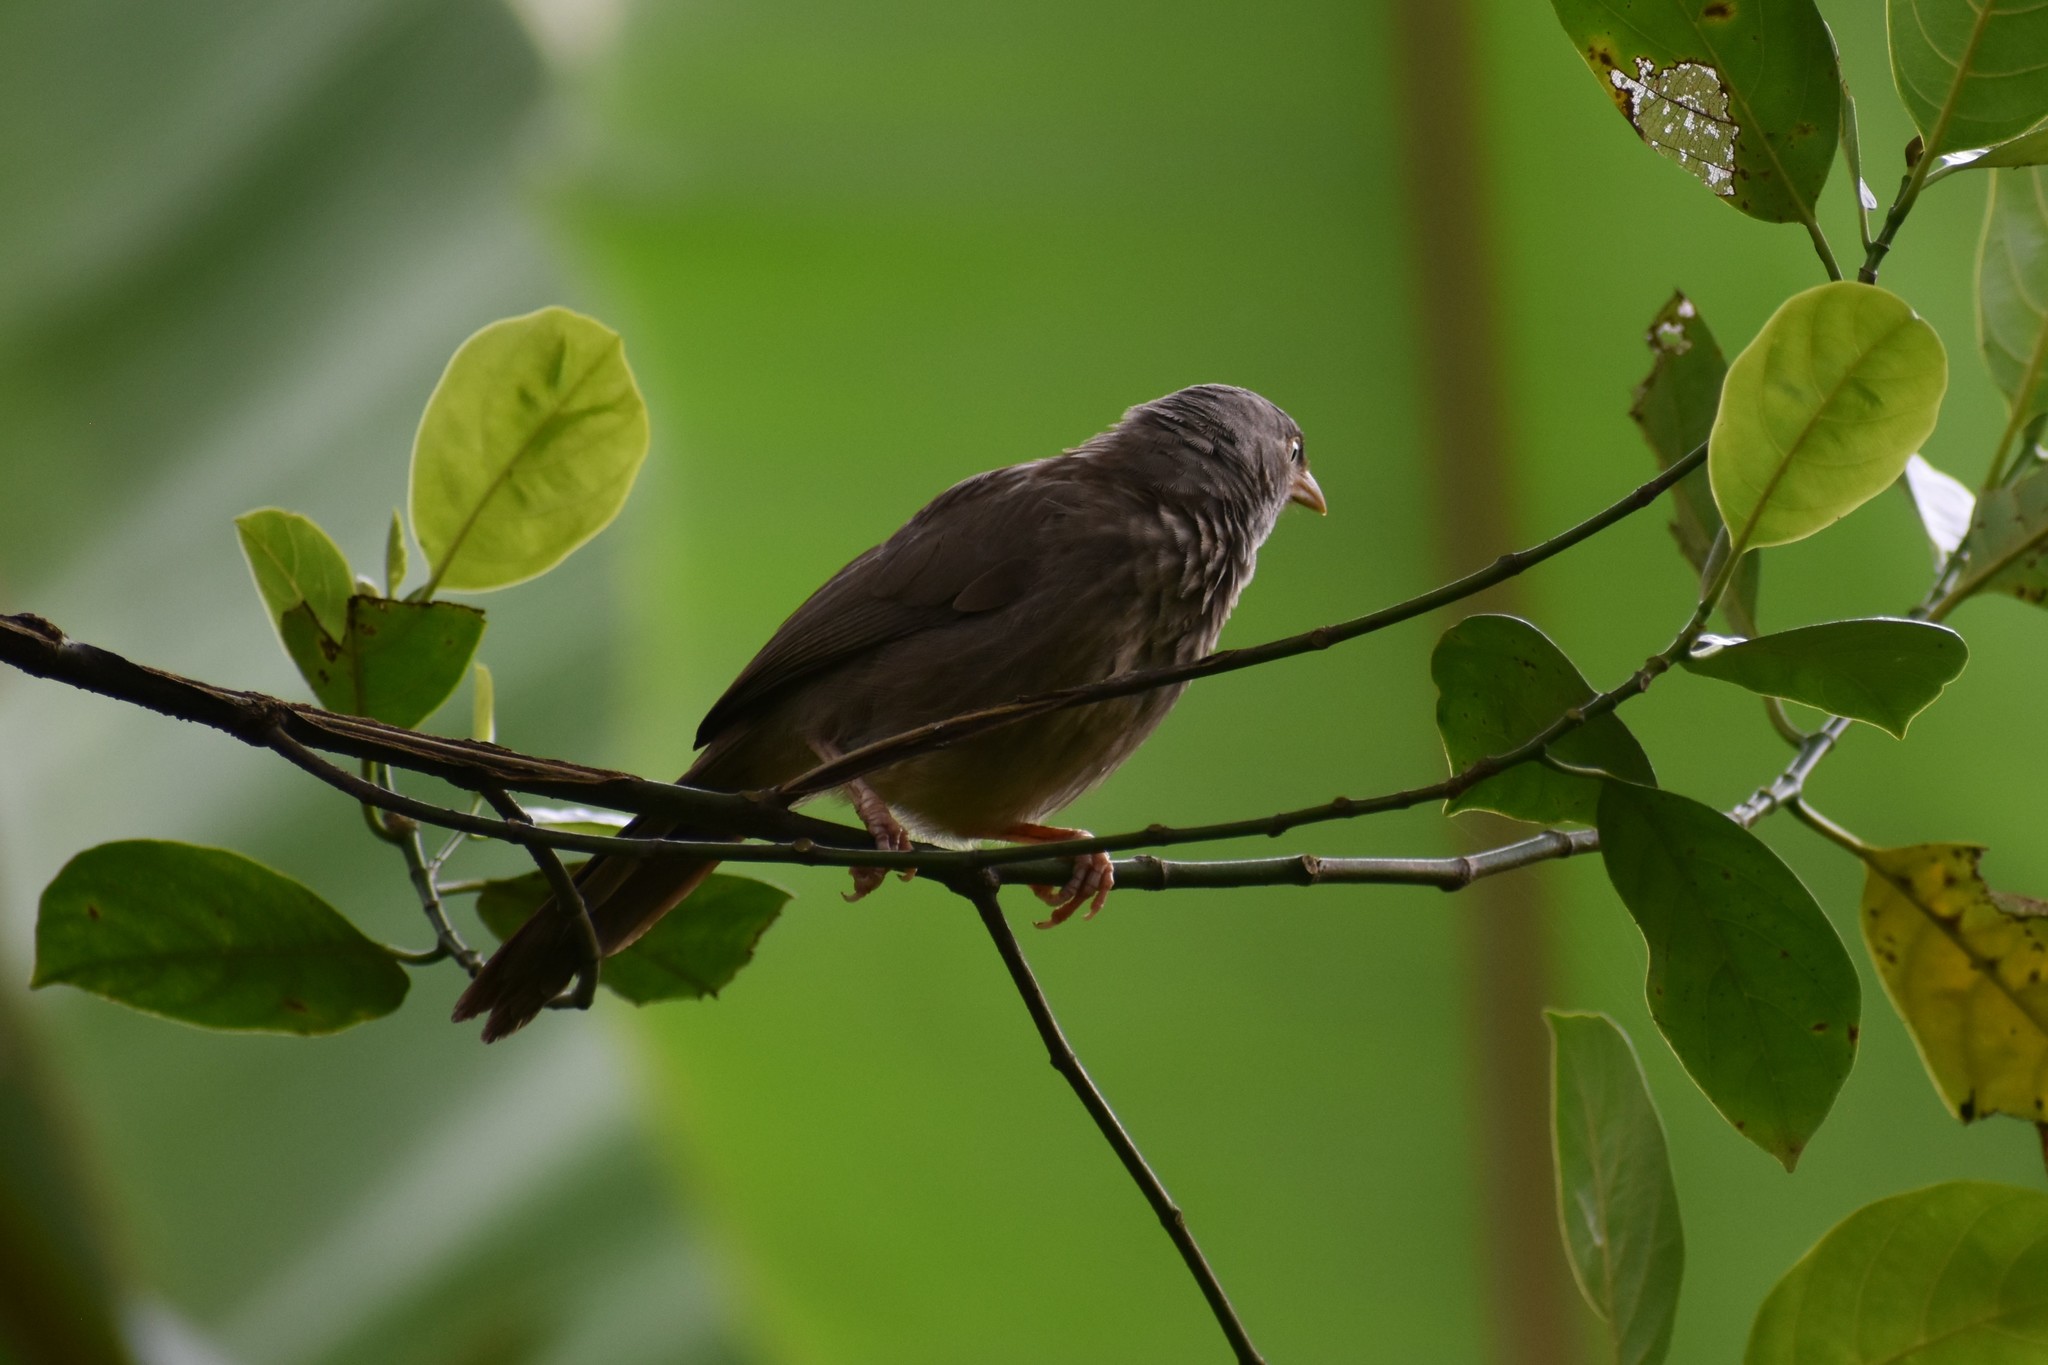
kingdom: Animalia
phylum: Chordata
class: Aves
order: Passeriformes
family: Leiothrichidae
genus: Turdoides
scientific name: Turdoides striata
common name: Jungle babbler
